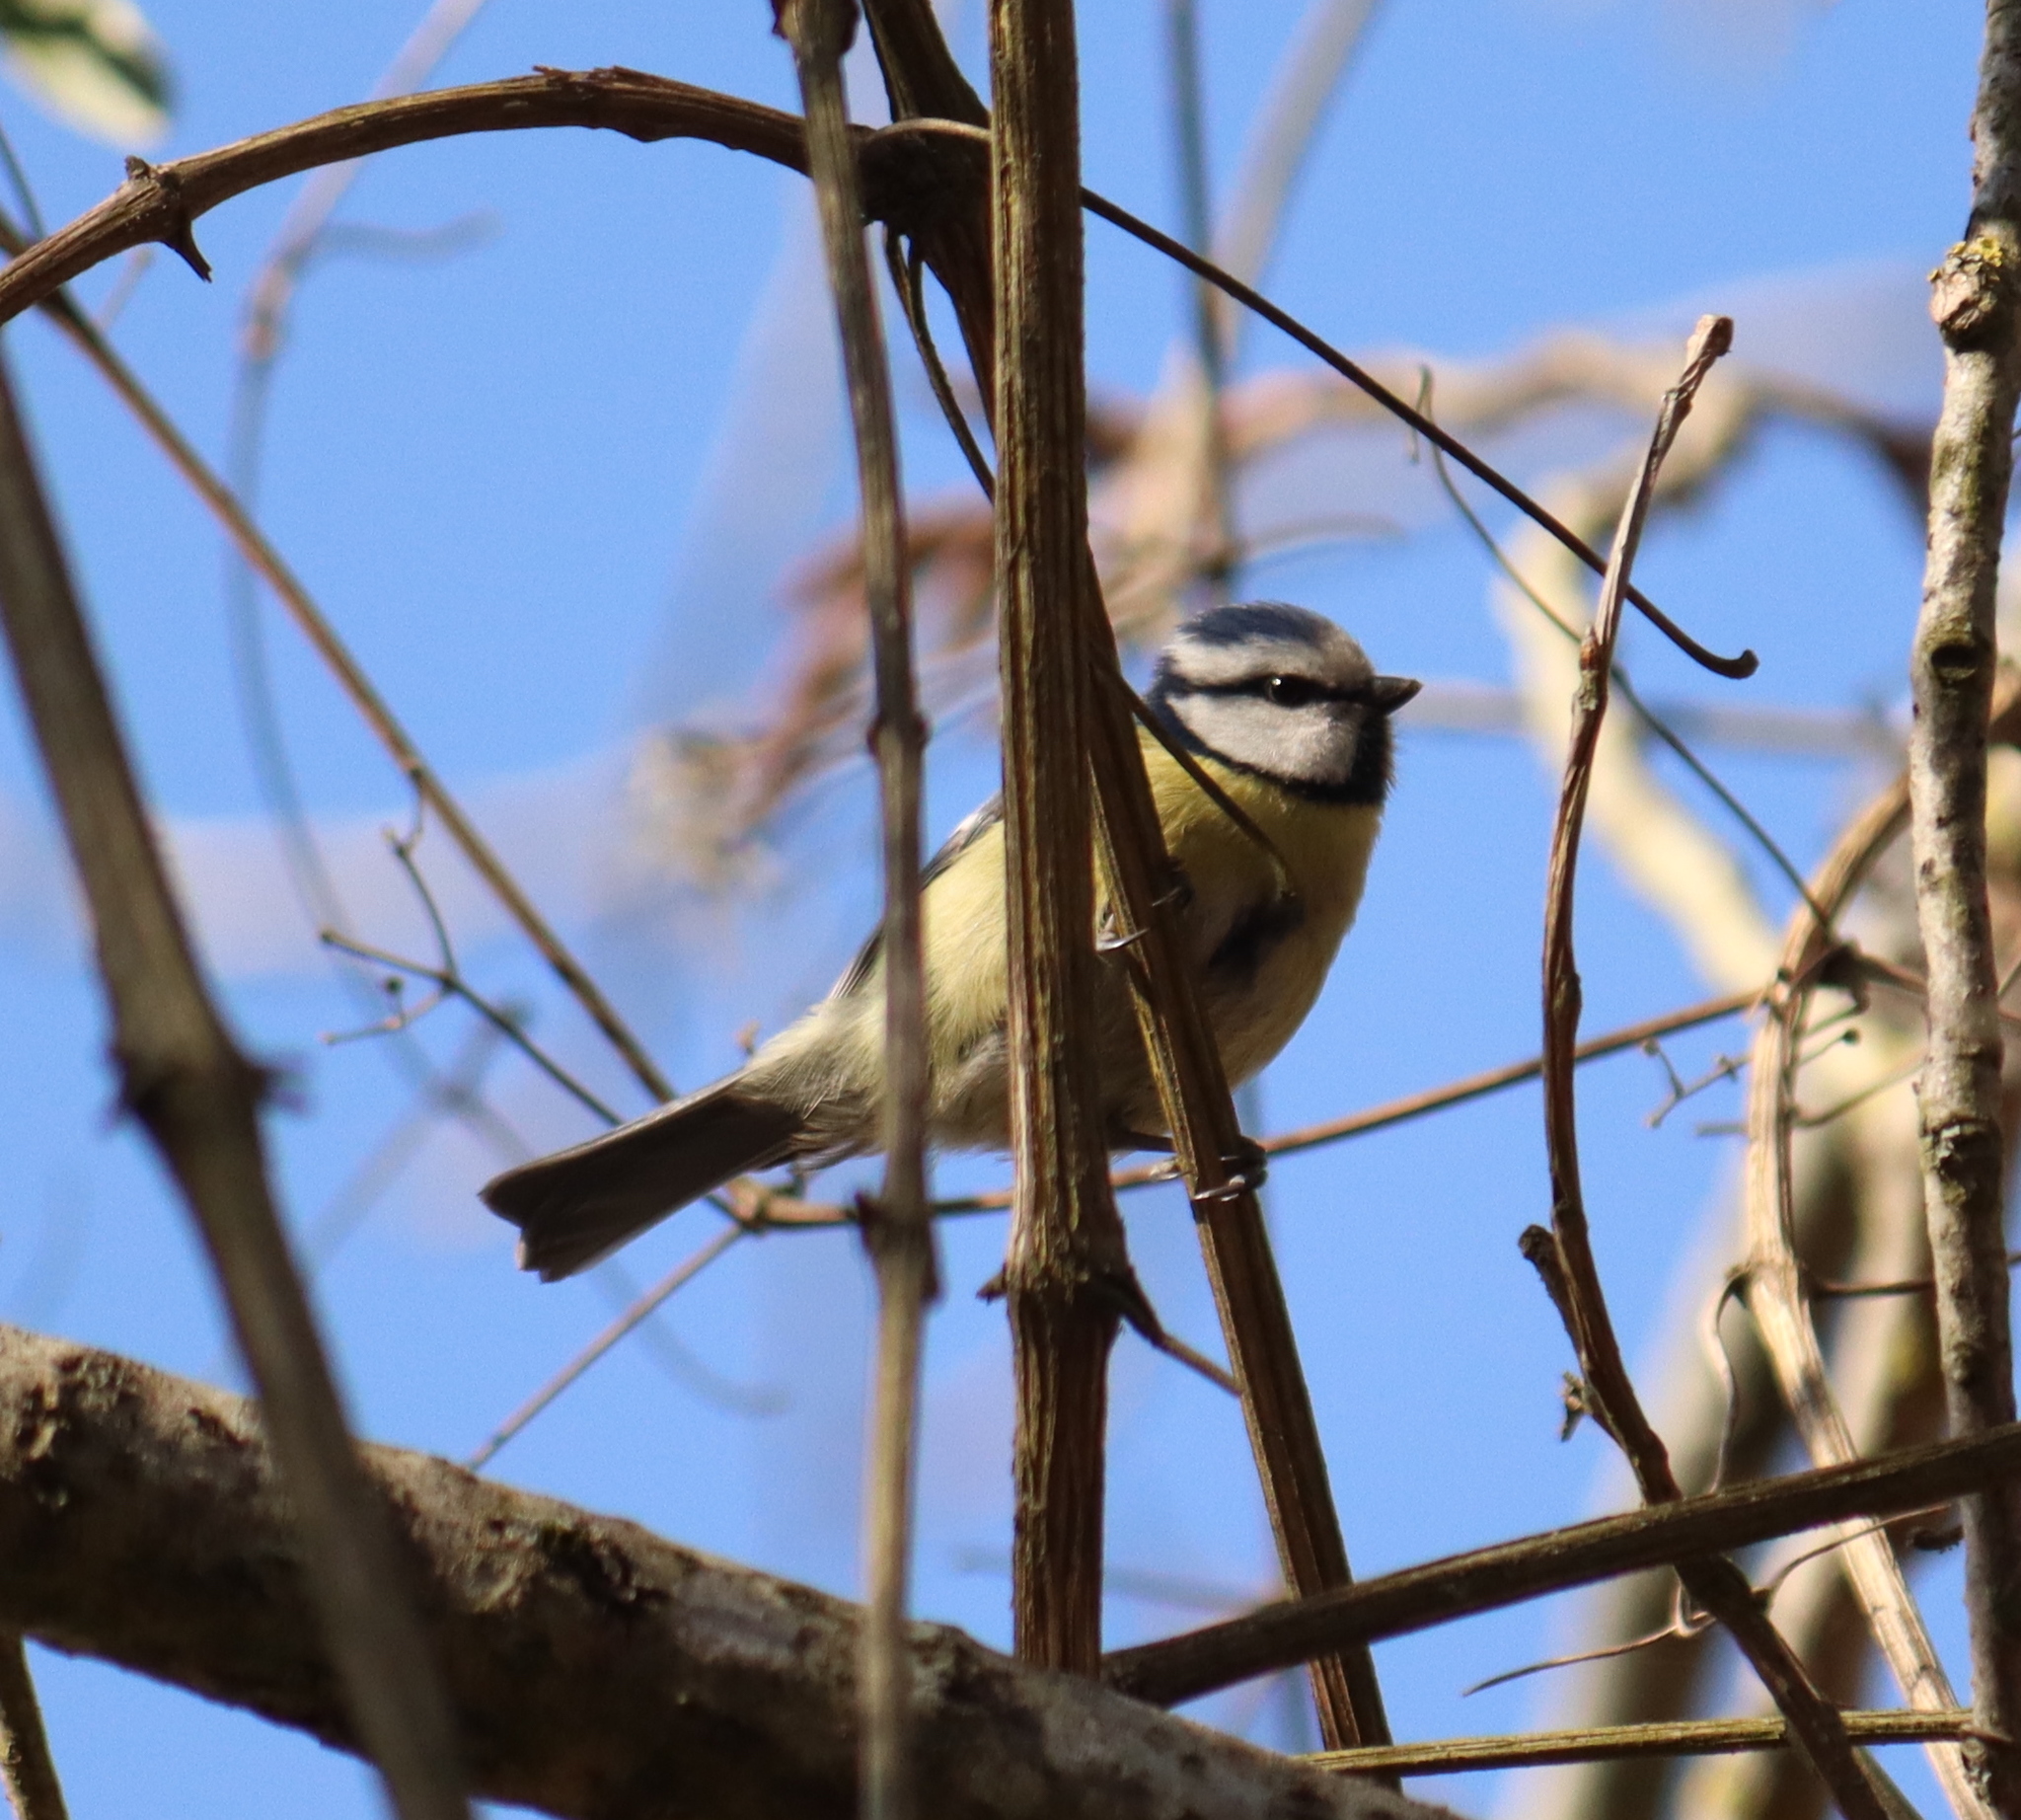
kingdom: Animalia
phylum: Chordata
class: Aves
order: Passeriformes
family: Paridae
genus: Cyanistes
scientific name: Cyanistes caeruleus
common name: Eurasian blue tit
